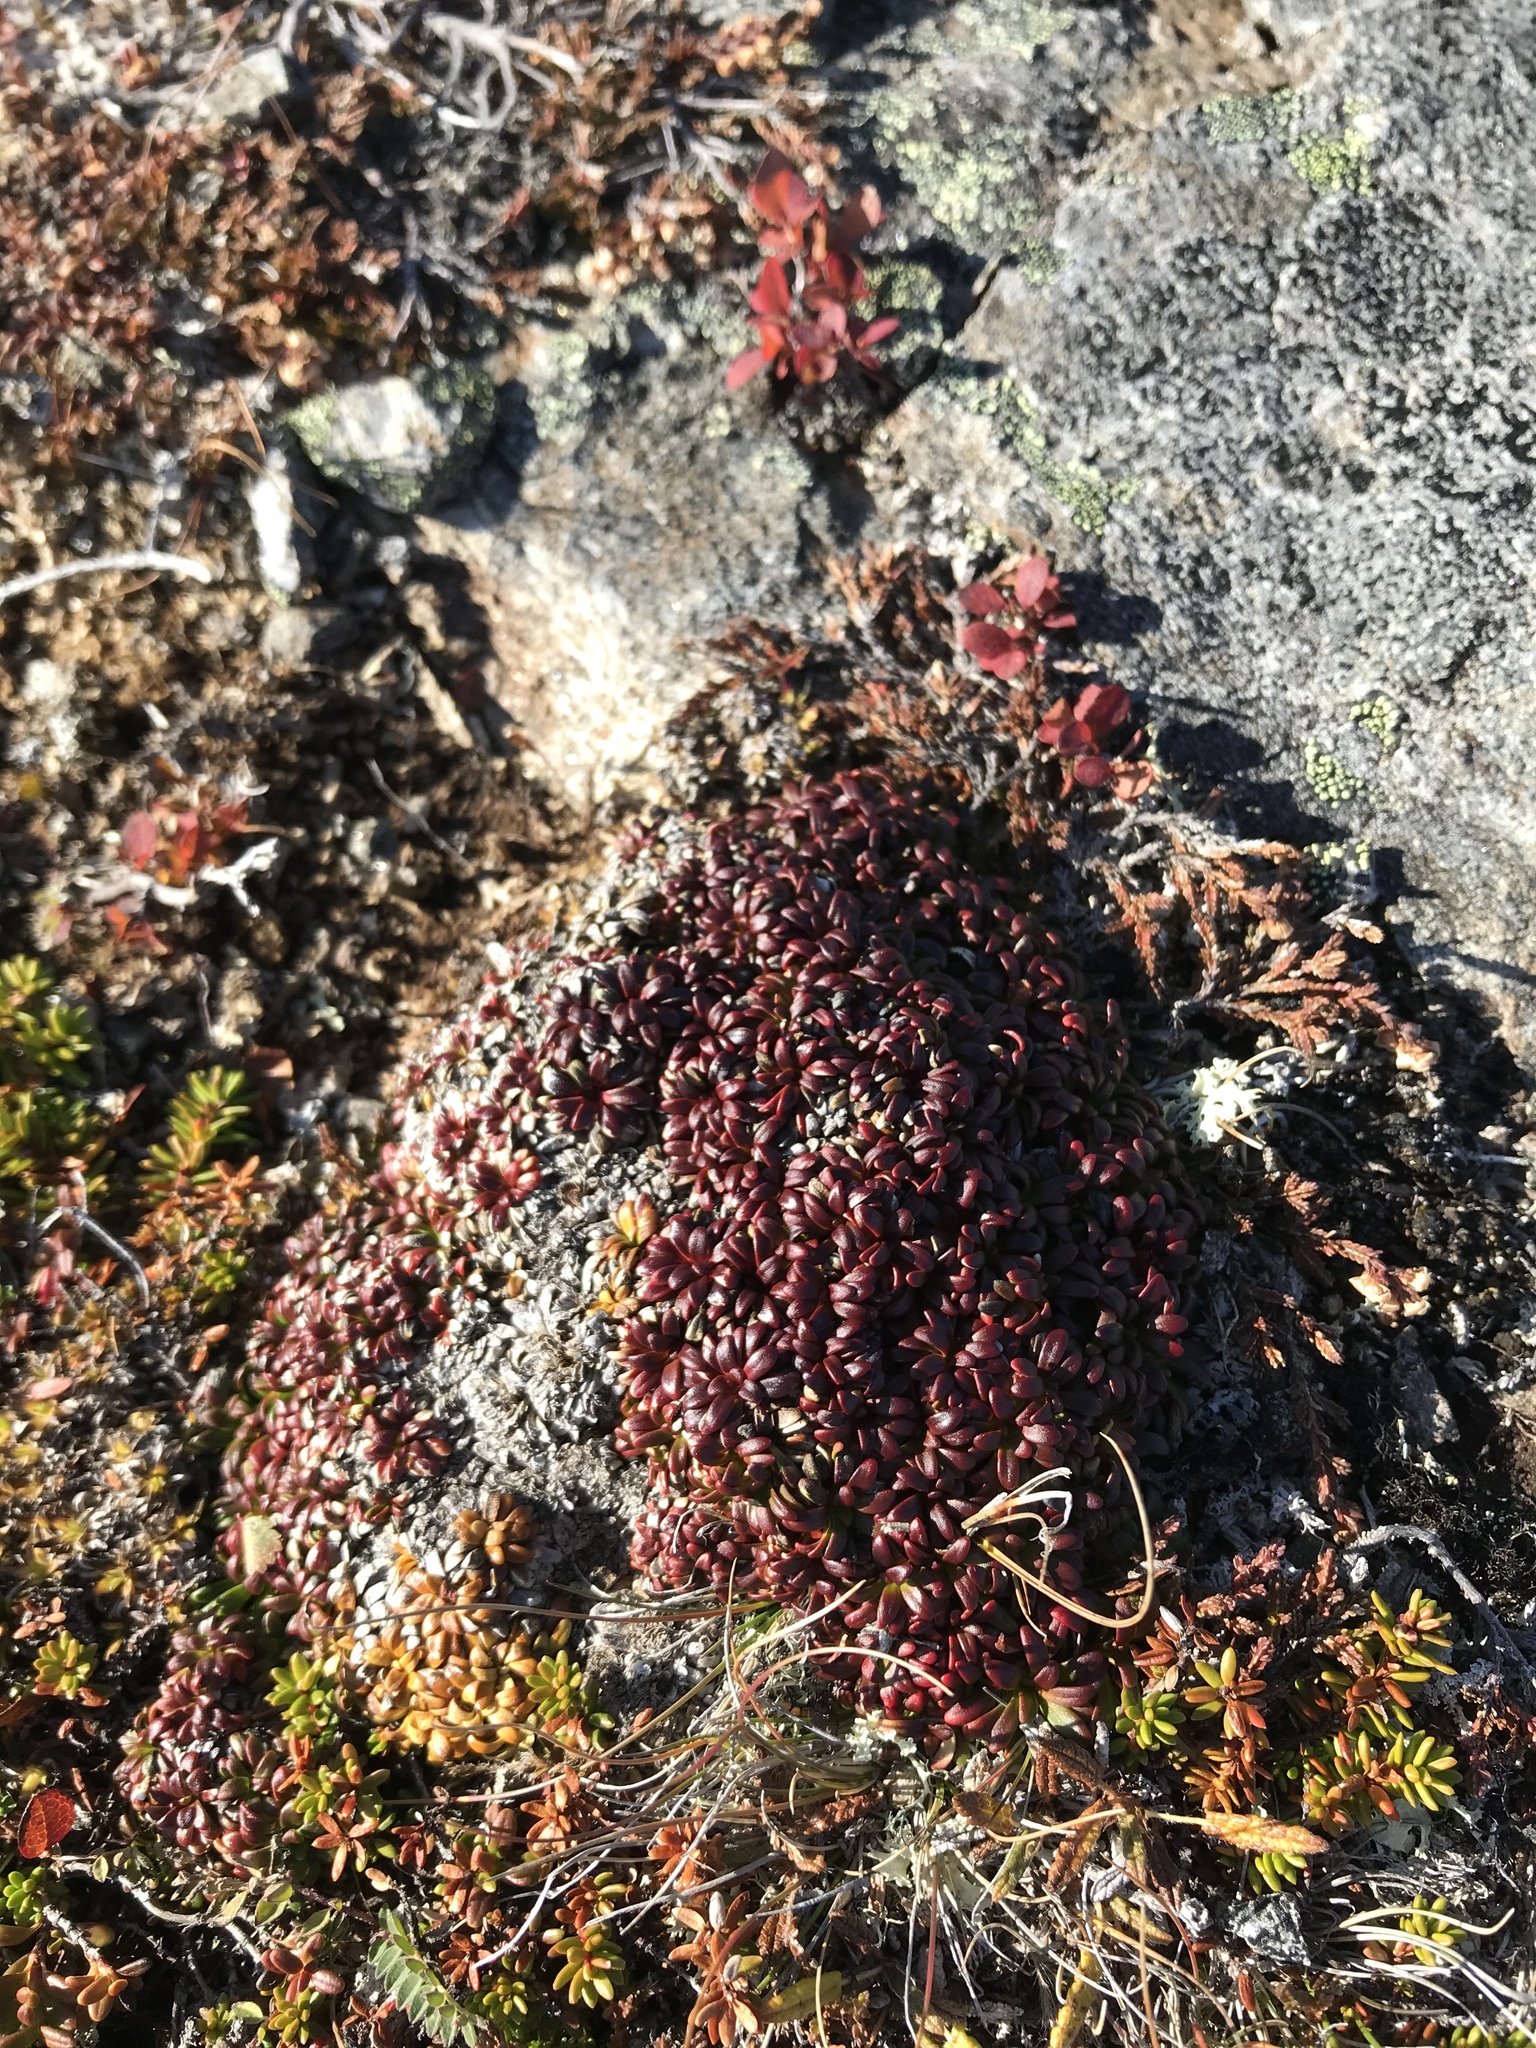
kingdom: Plantae
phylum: Tracheophyta
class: Magnoliopsida
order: Ericales
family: Diapensiaceae
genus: Diapensia
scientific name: Diapensia lapponica
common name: Diapensia
